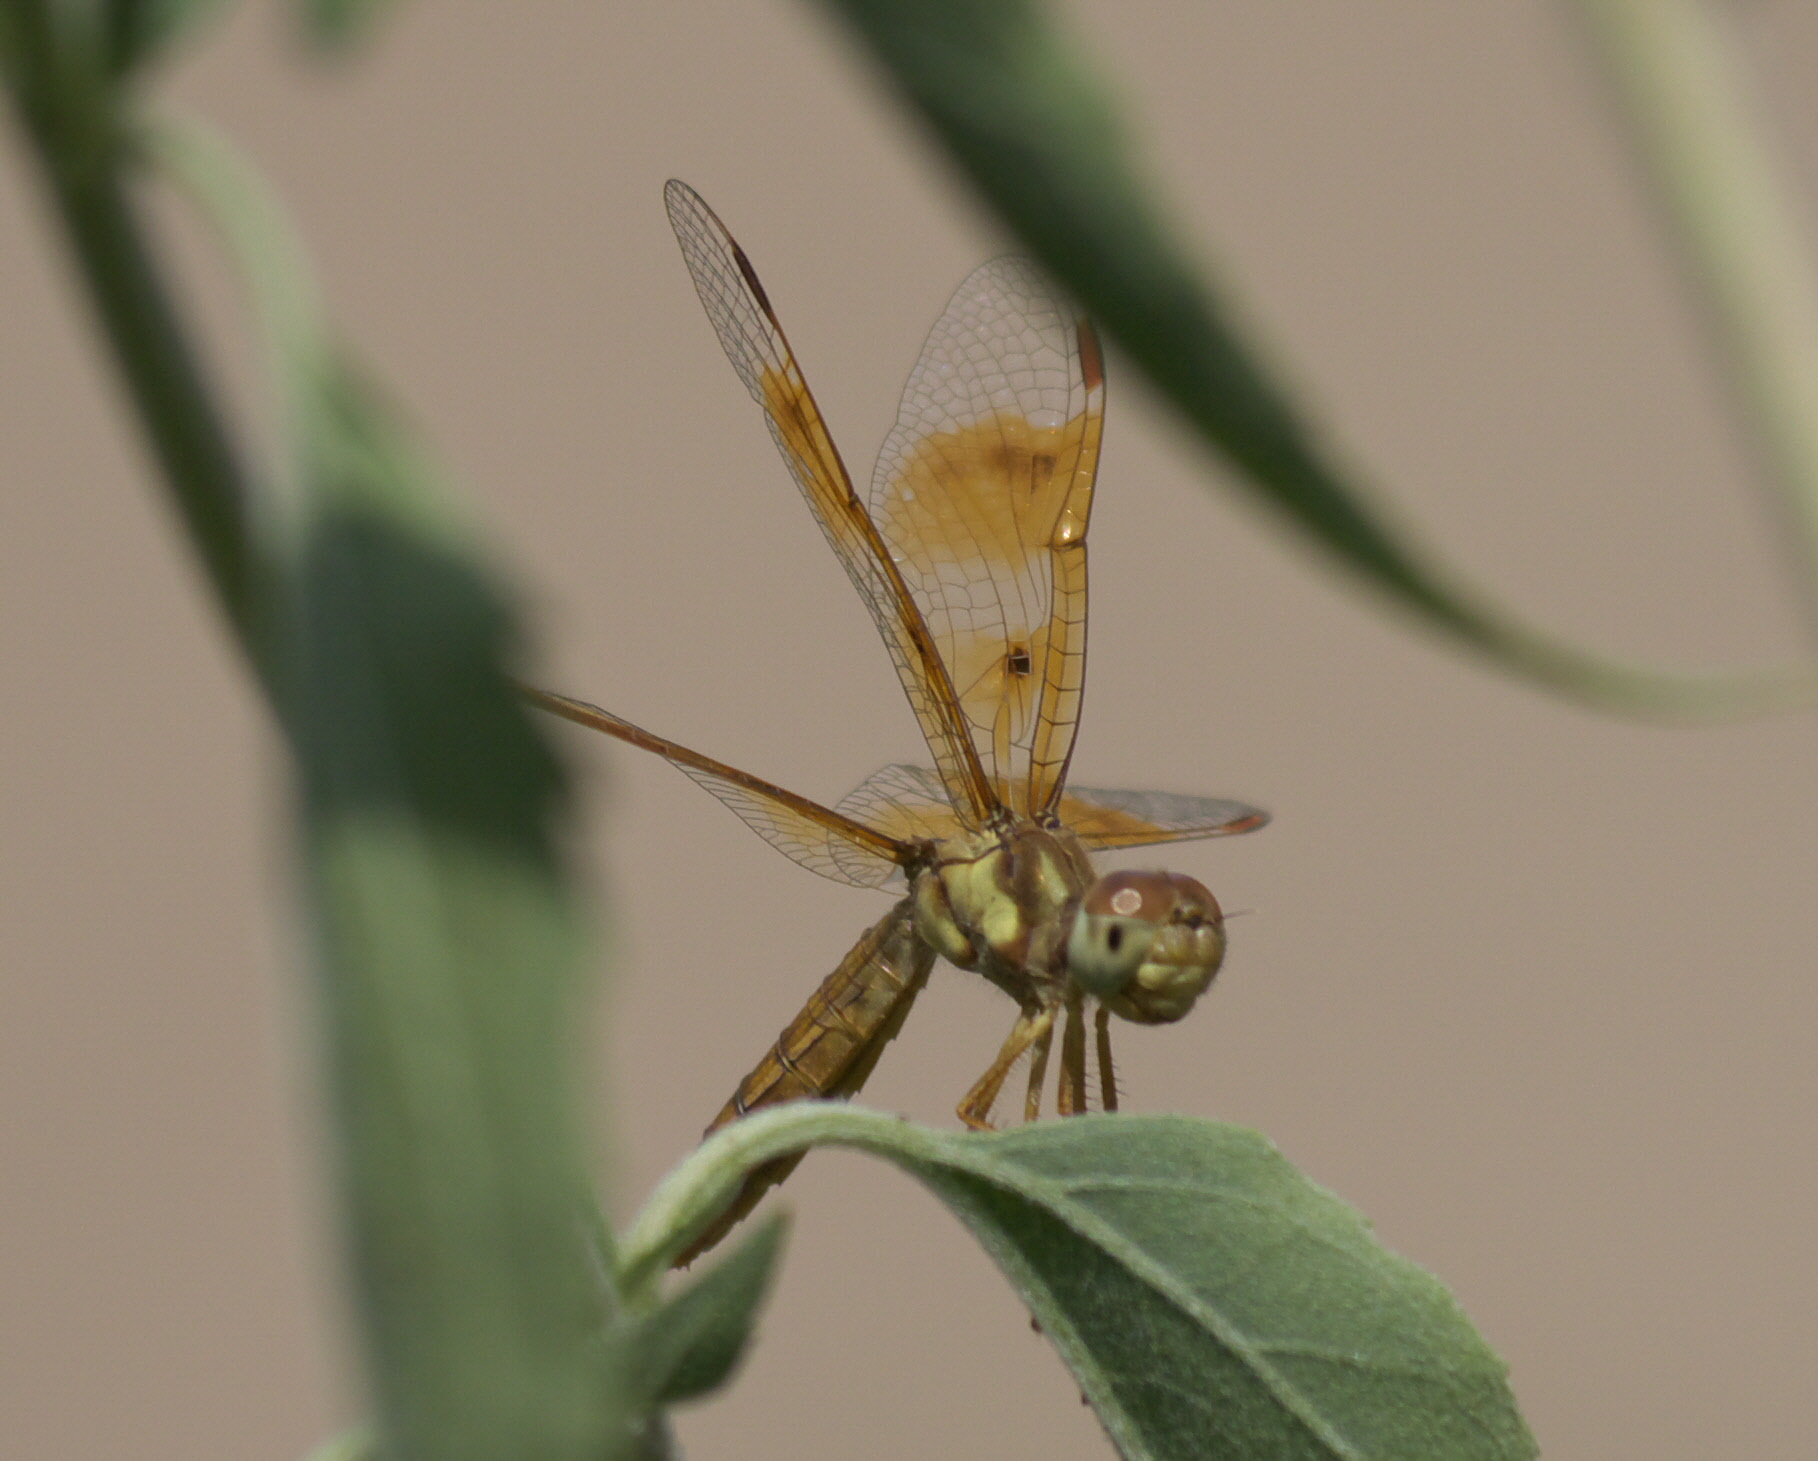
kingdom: Animalia
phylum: Arthropoda
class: Insecta
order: Odonata
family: Libellulidae
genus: Perithemis
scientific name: Perithemis tenera
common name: Eastern amberwing
